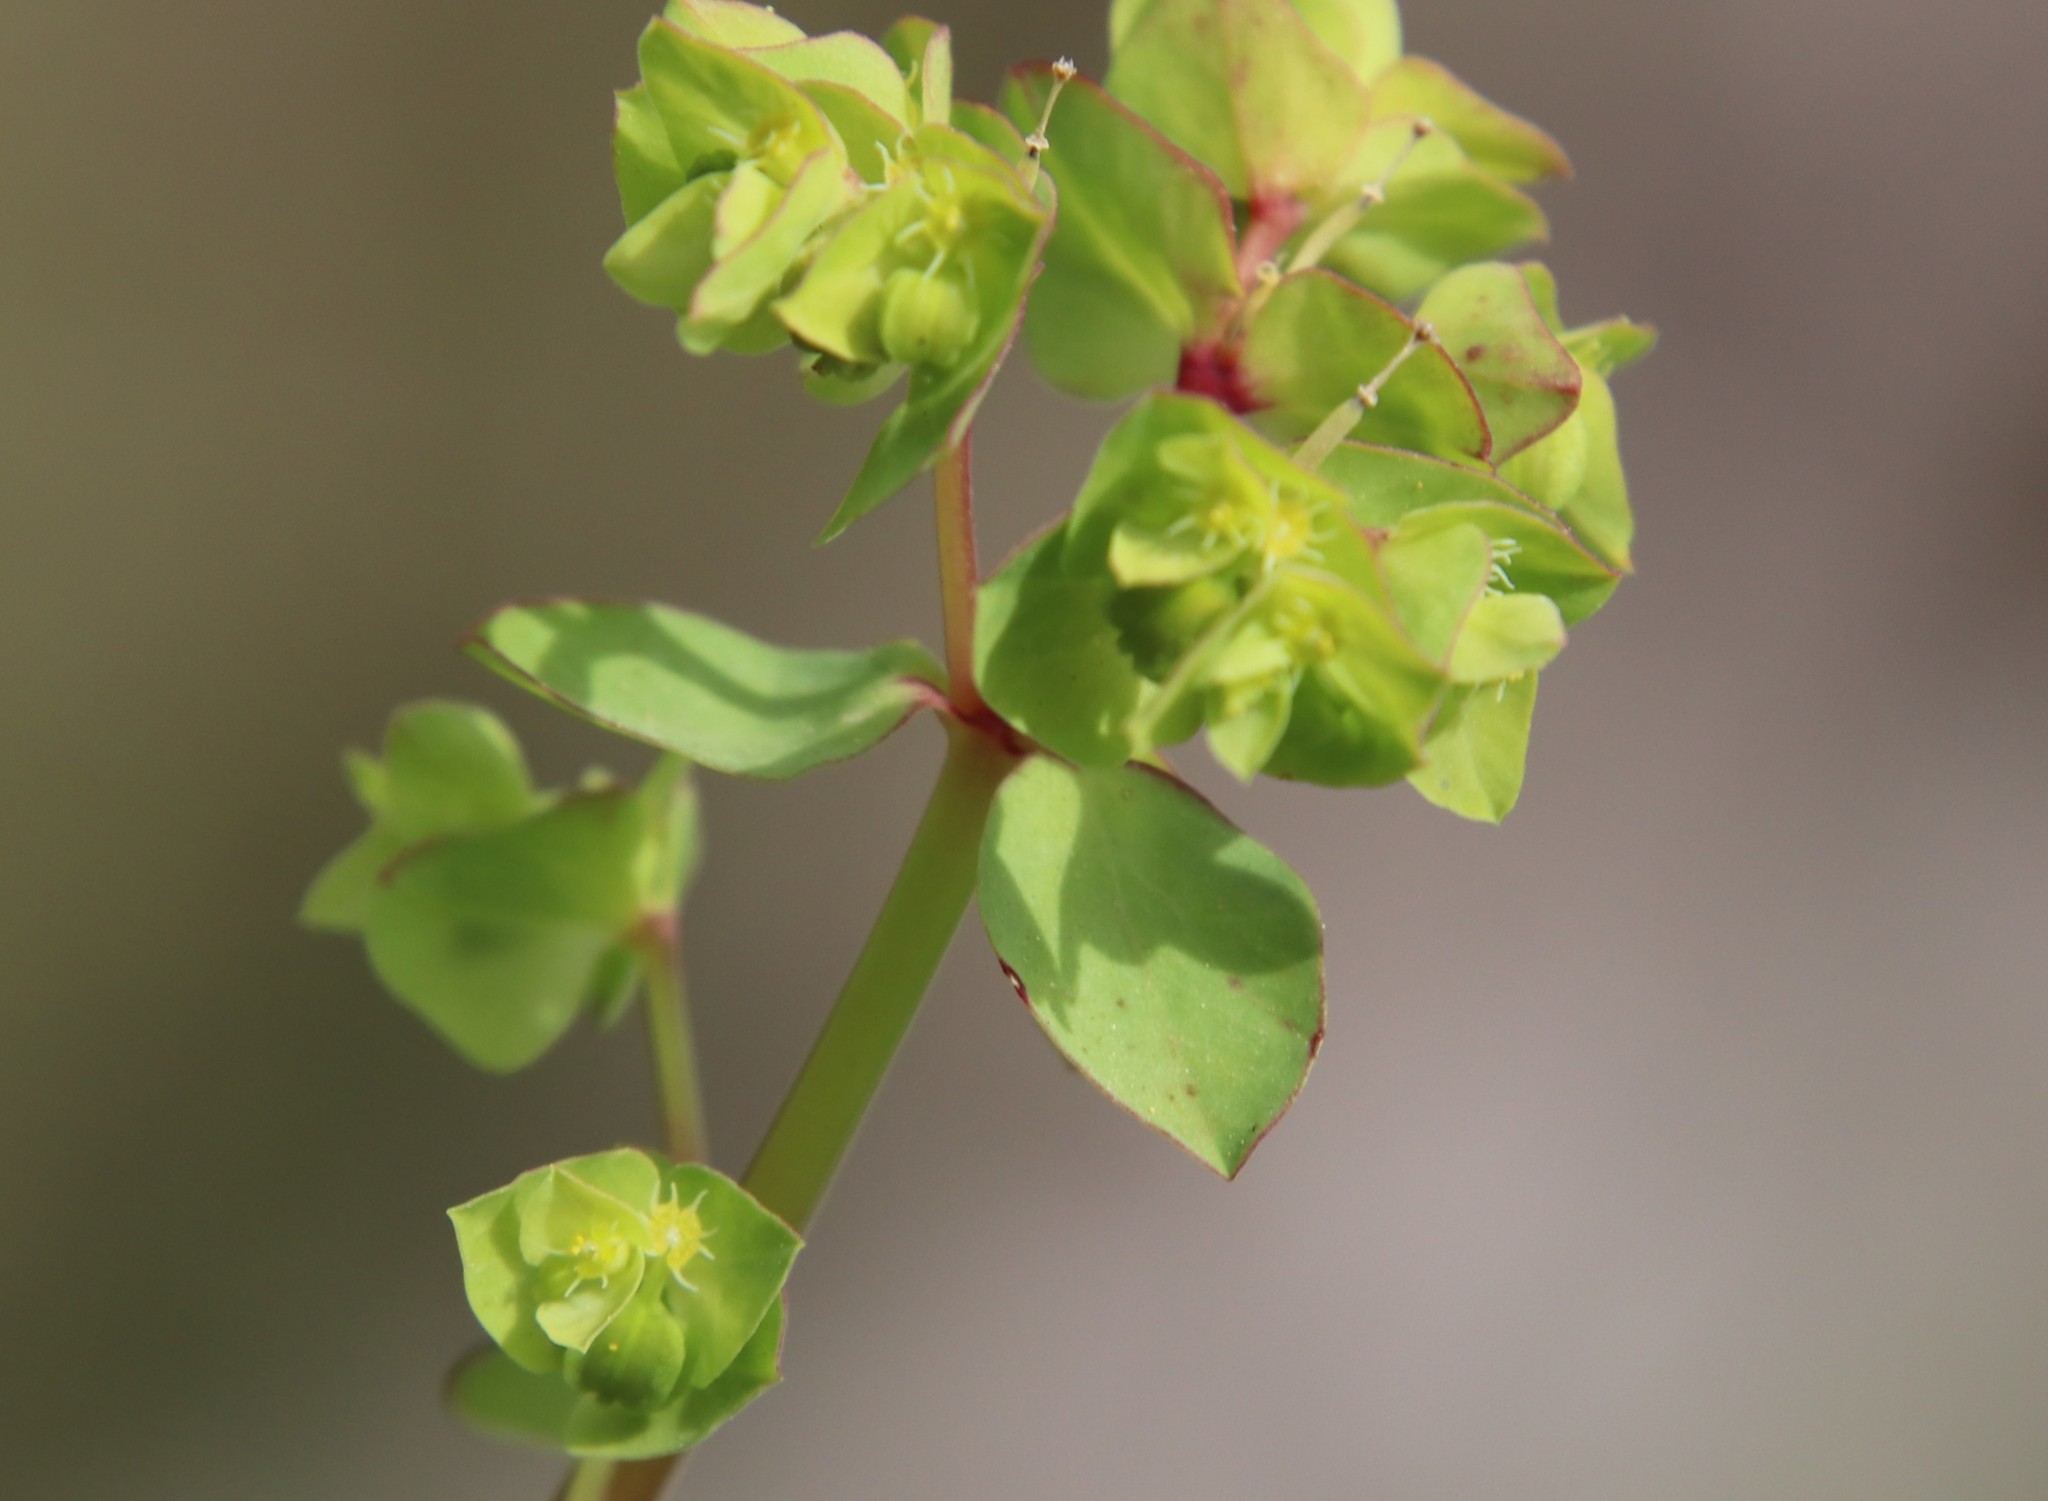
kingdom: Plantae
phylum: Tracheophyta
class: Magnoliopsida
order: Malpighiales
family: Euphorbiaceae
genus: Euphorbia
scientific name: Euphorbia peplus
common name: Petty spurge
